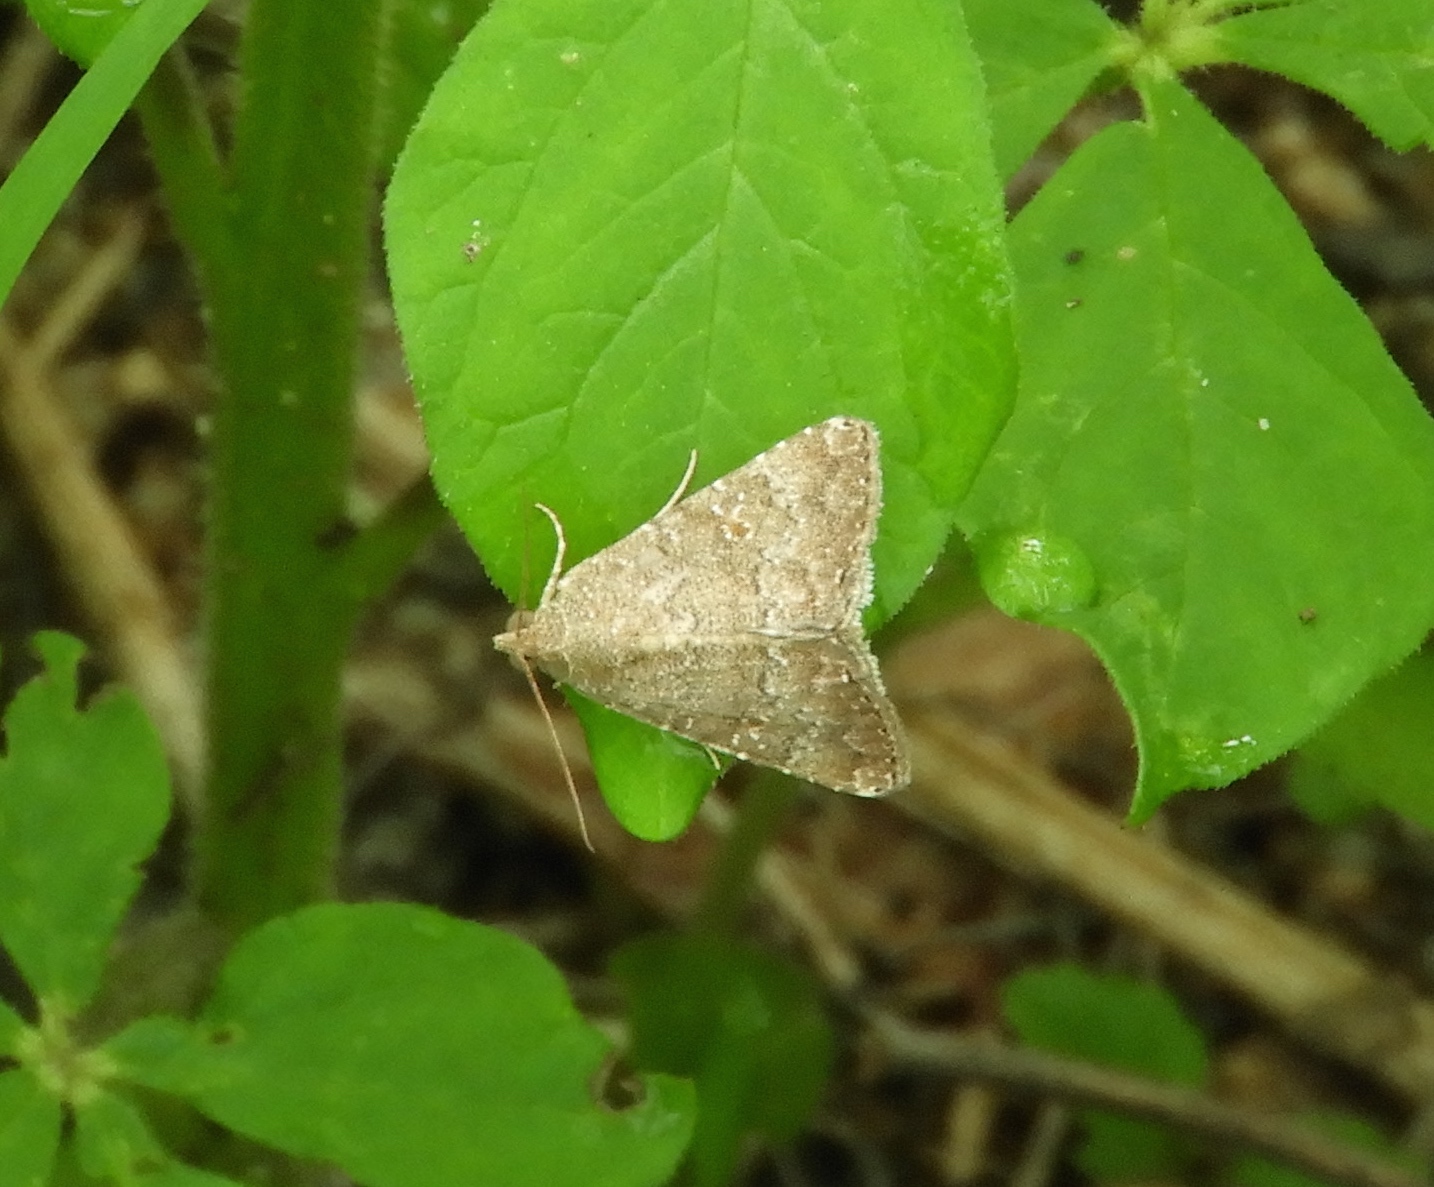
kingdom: Animalia
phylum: Arthropoda
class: Insecta
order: Lepidoptera
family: Noctuidae
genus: Amyna
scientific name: Amyna
